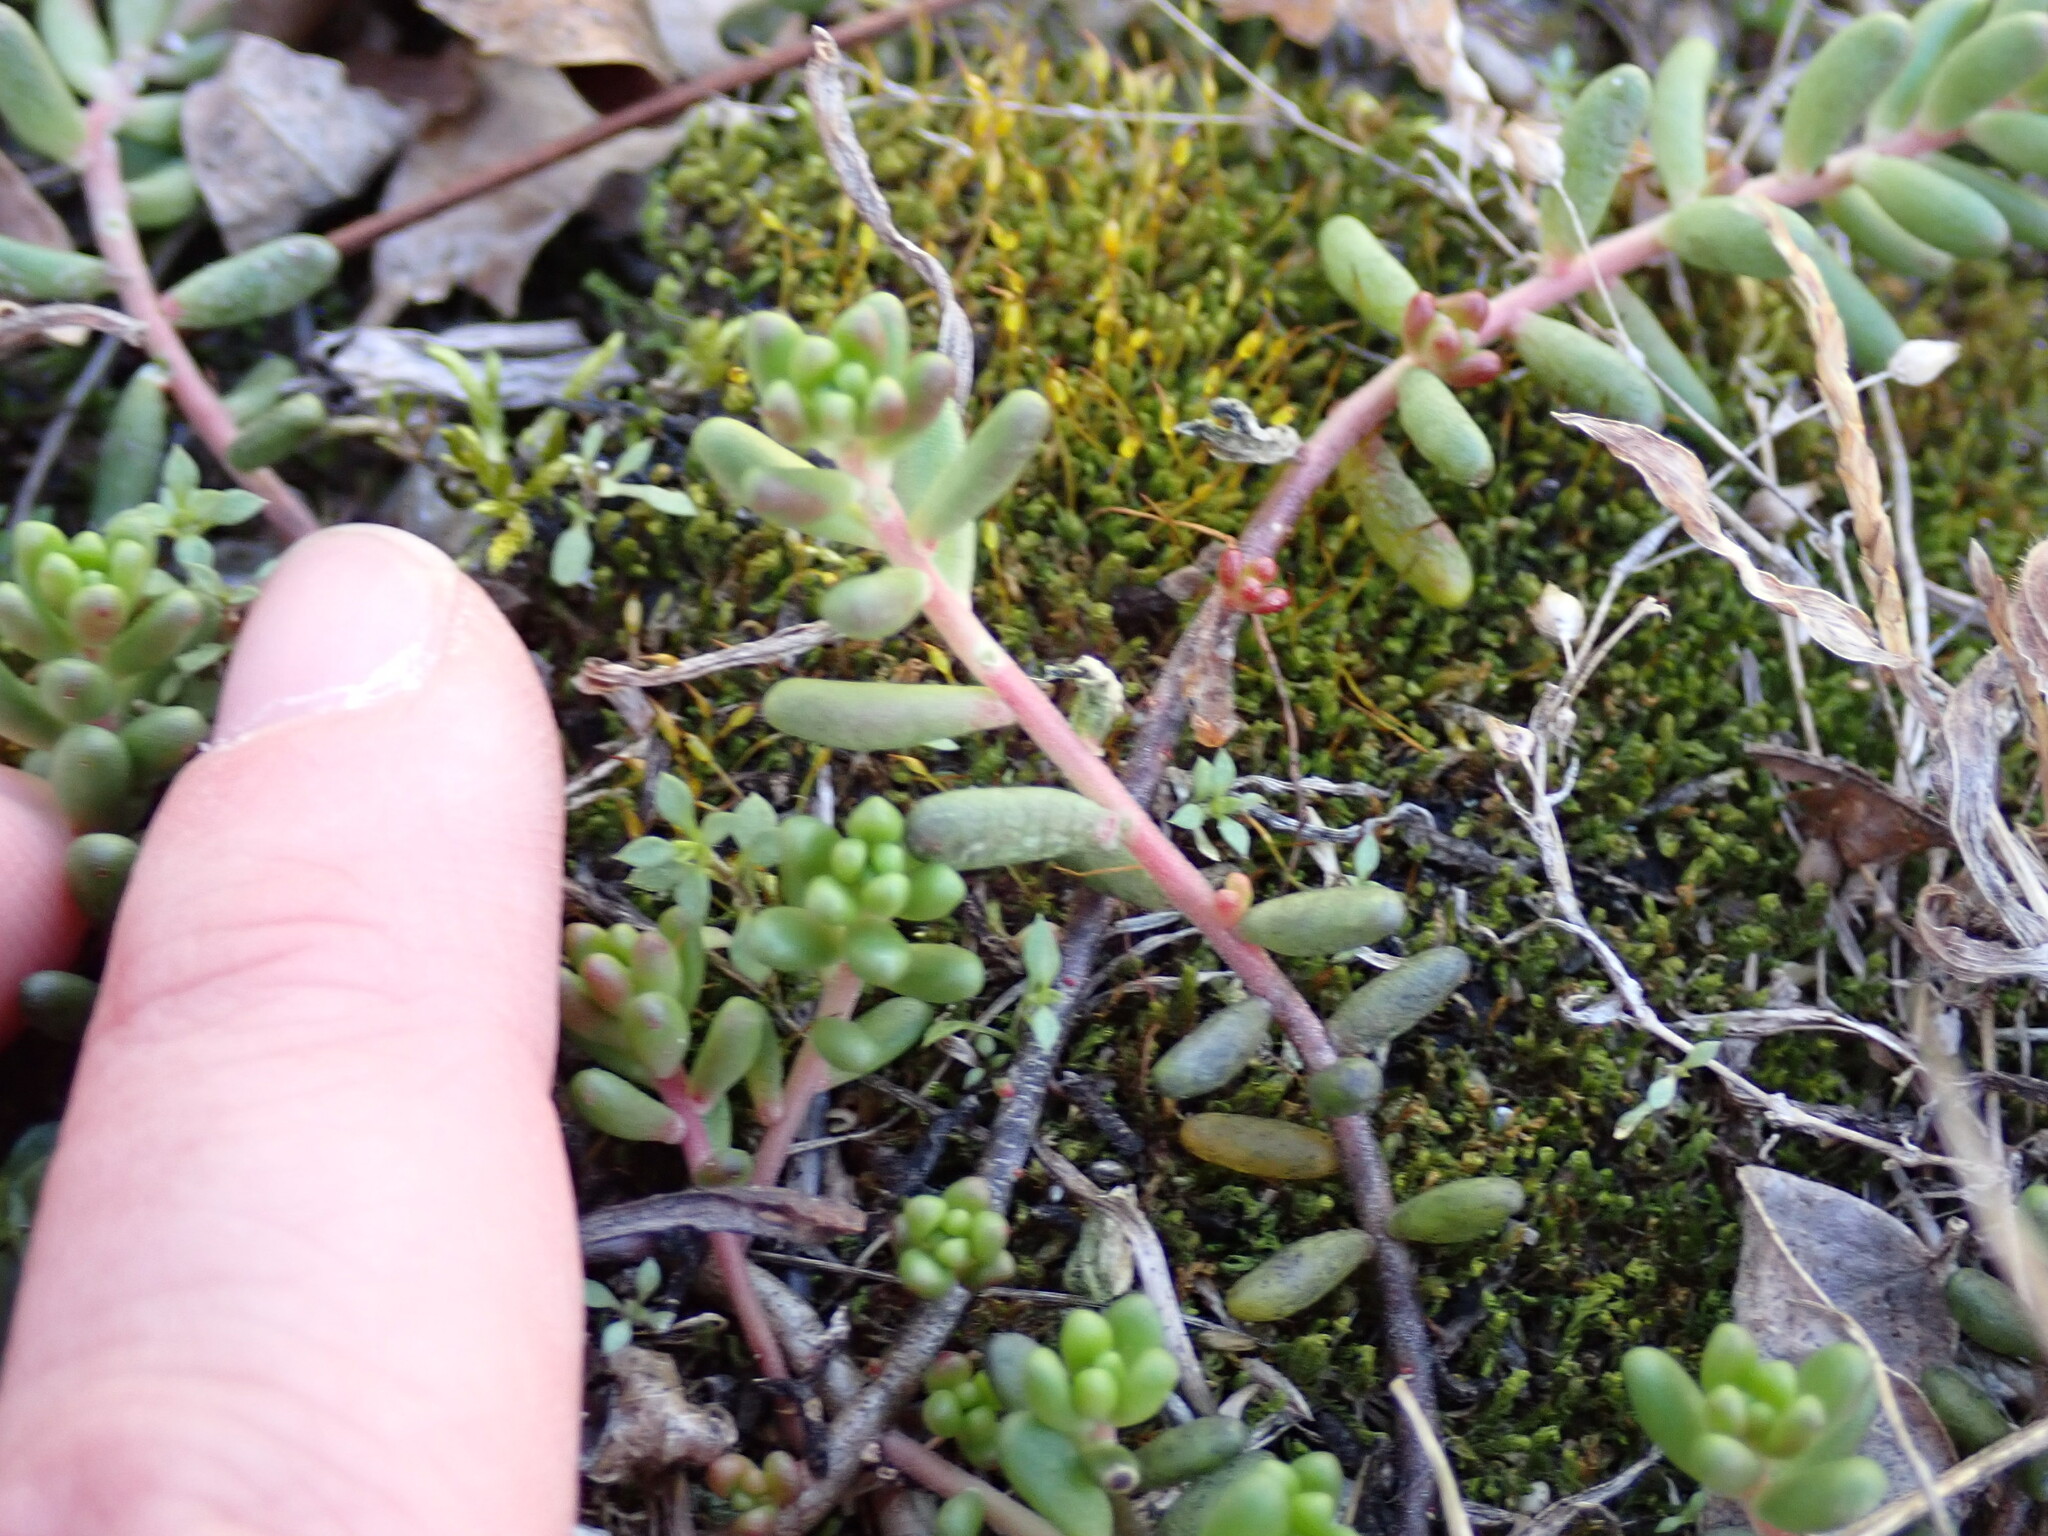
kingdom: Plantae
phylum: Tracheophyta
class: Magnoliopsida
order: Saxifragales
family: Crassulaceae
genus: Sedum
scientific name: Sedum album
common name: White stonecrop
